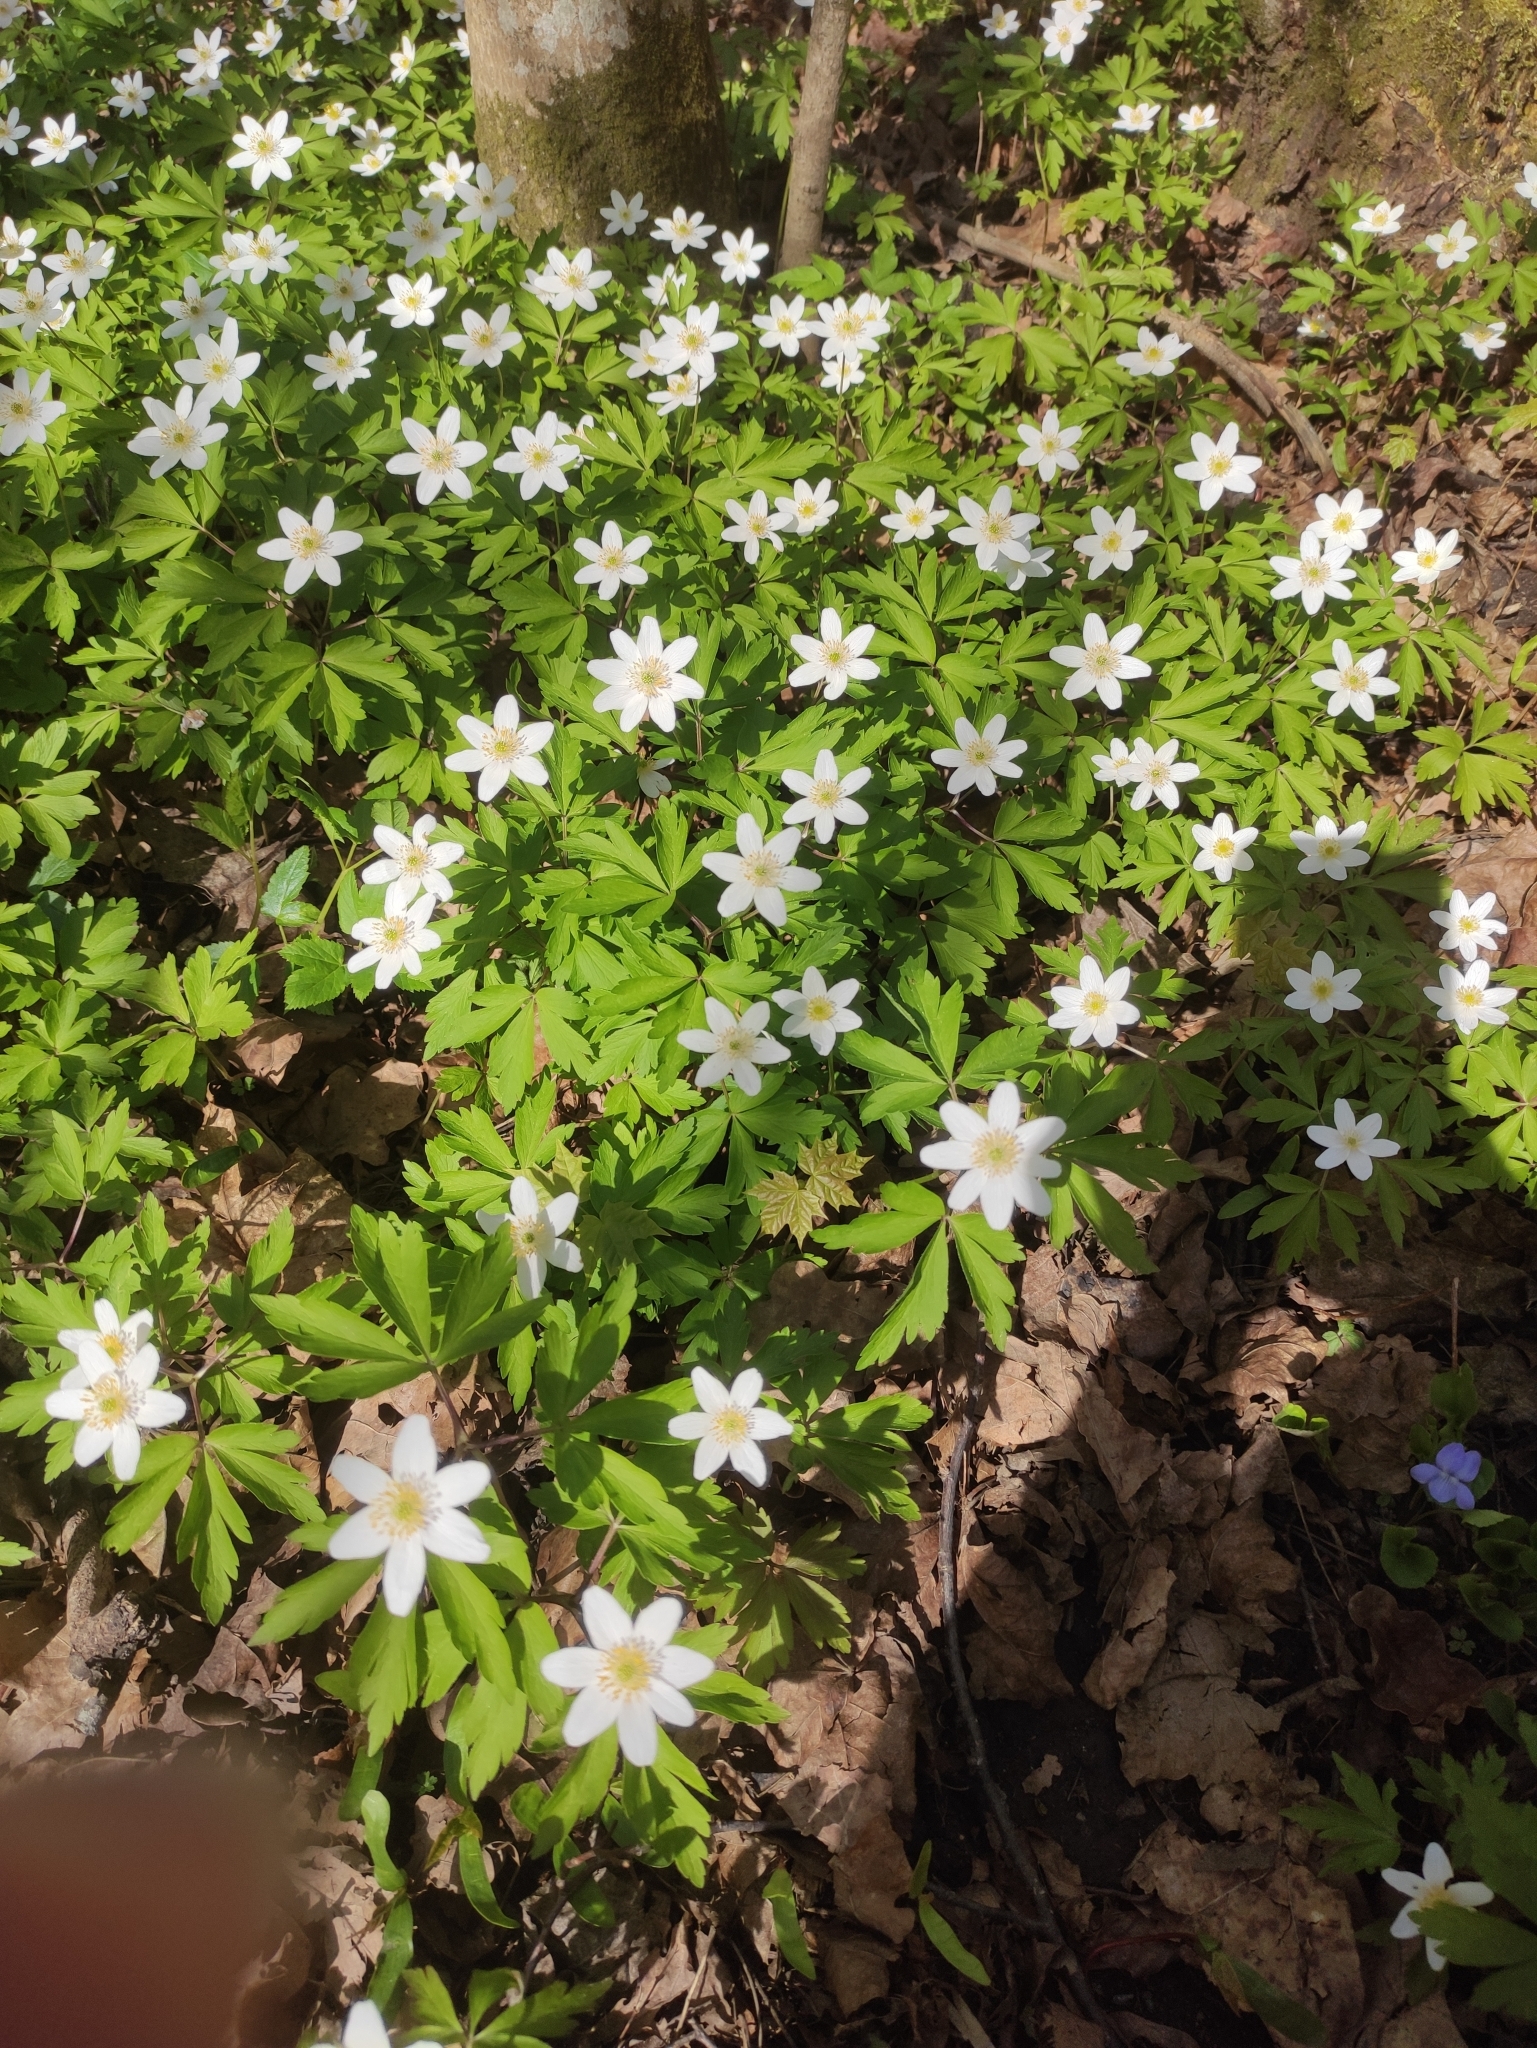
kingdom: Plantae
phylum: Tracheophyta
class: Magnoliopsida
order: Ranunculales
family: Ranunculaceae
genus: Anemone
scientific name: Anemone nemorosa
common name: Wood anemone
